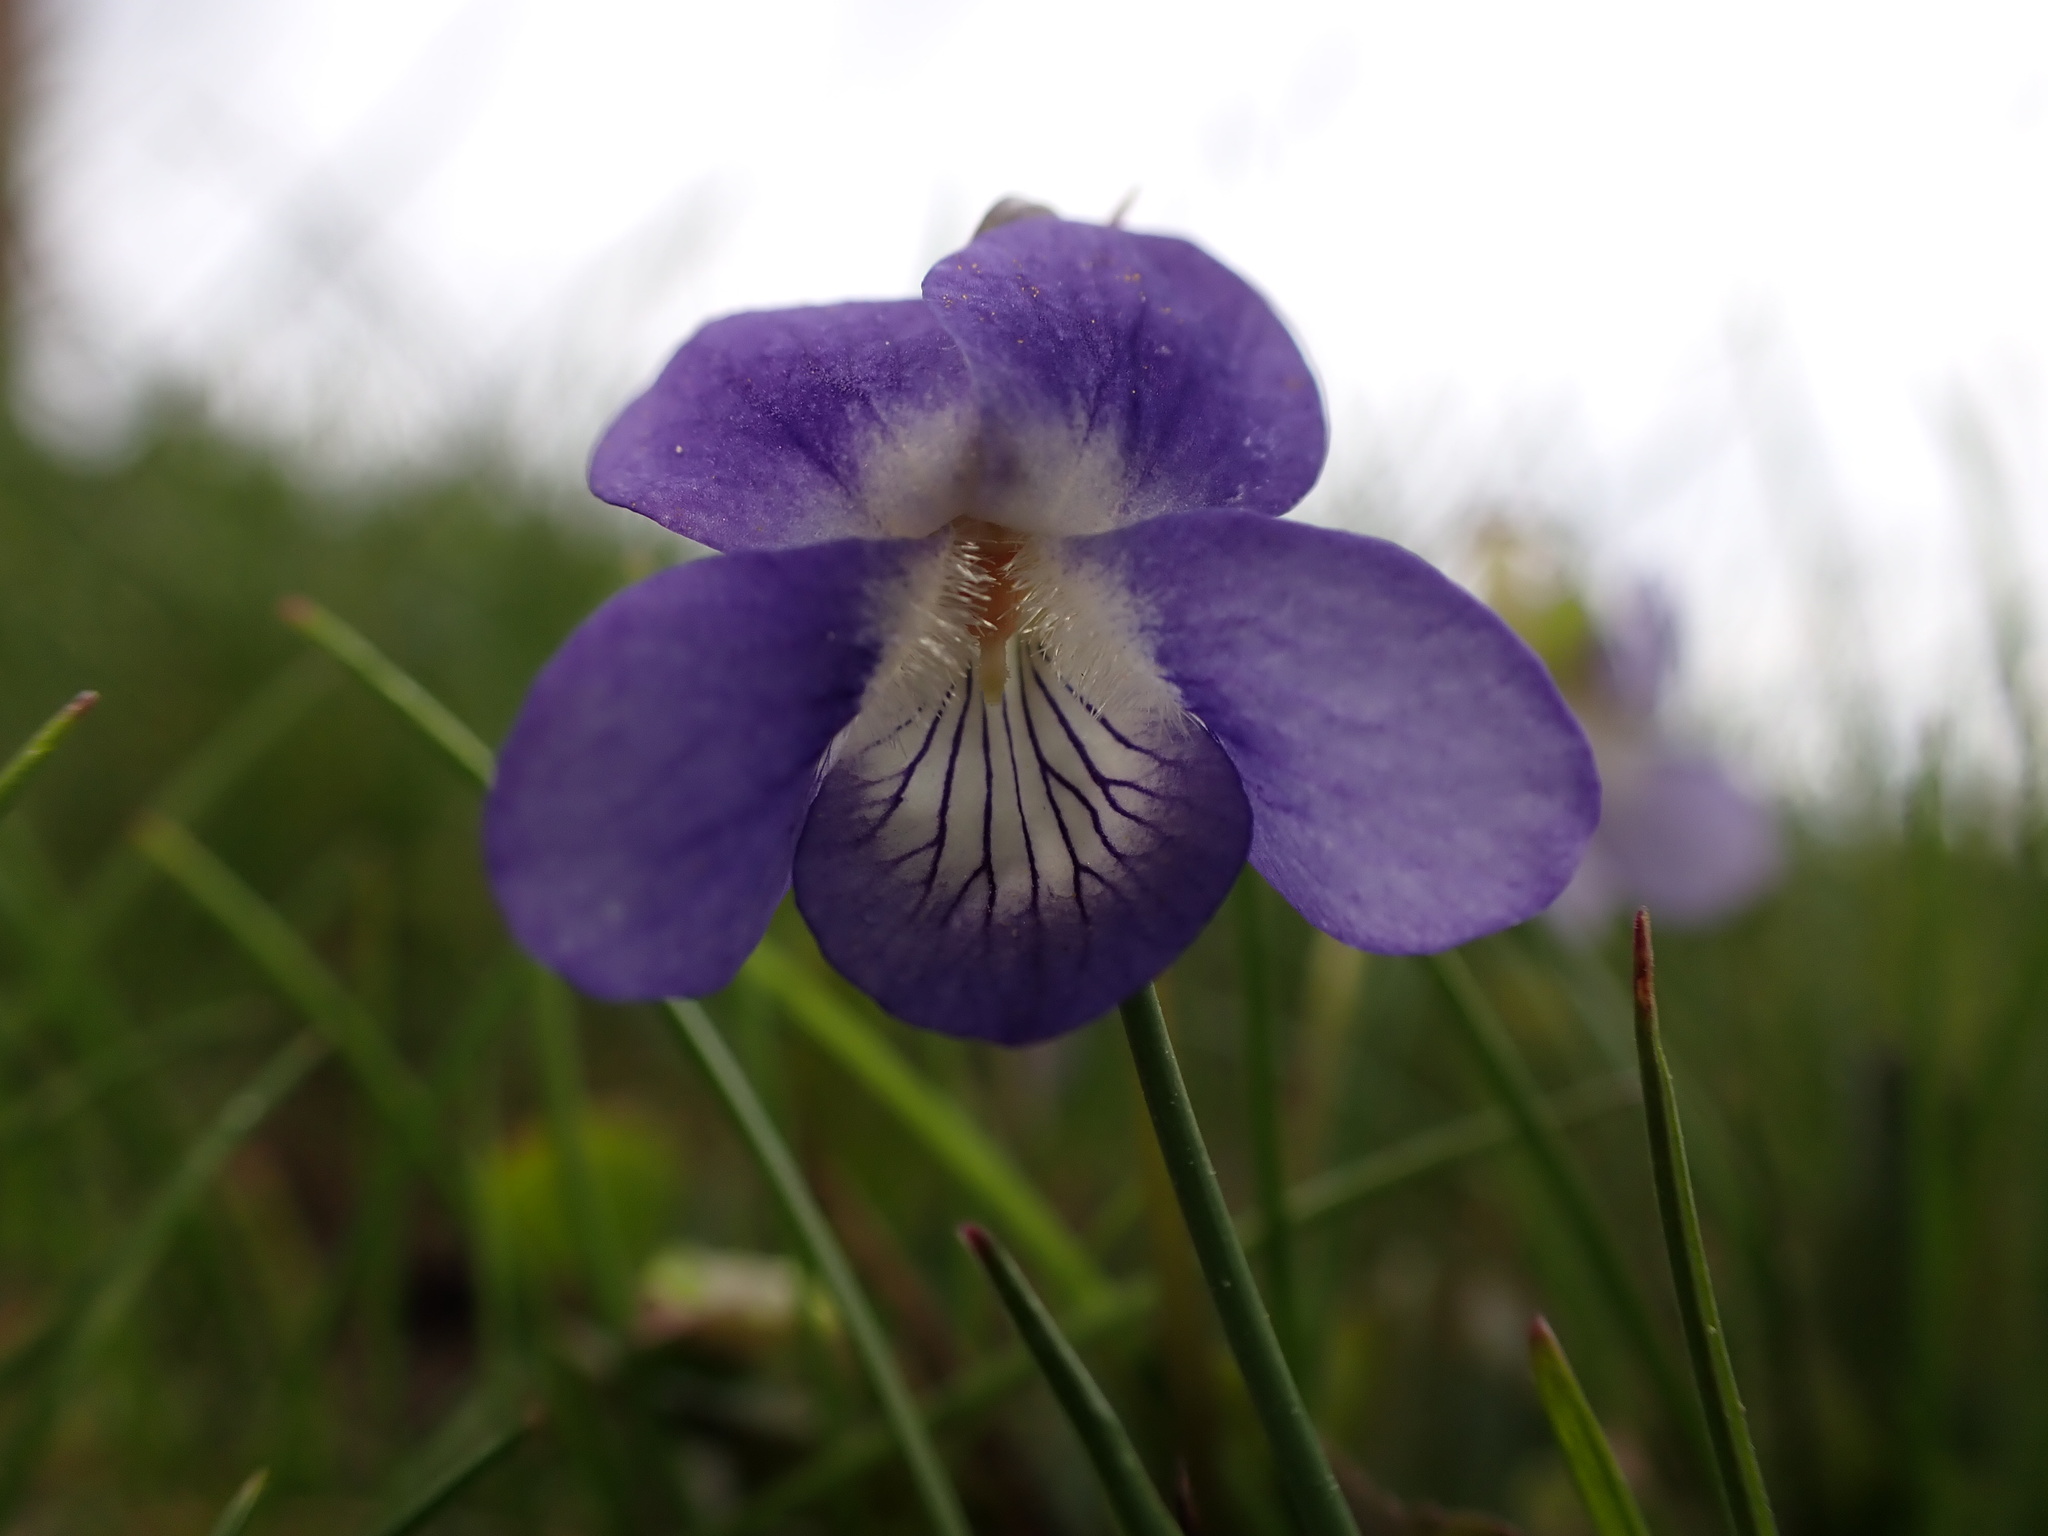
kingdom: Plantae
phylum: Tracheophyta
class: Magnoliopsida
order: Malpighiales
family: Violaceae
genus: Viola
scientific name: Viola canina
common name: Heath dog-violet
